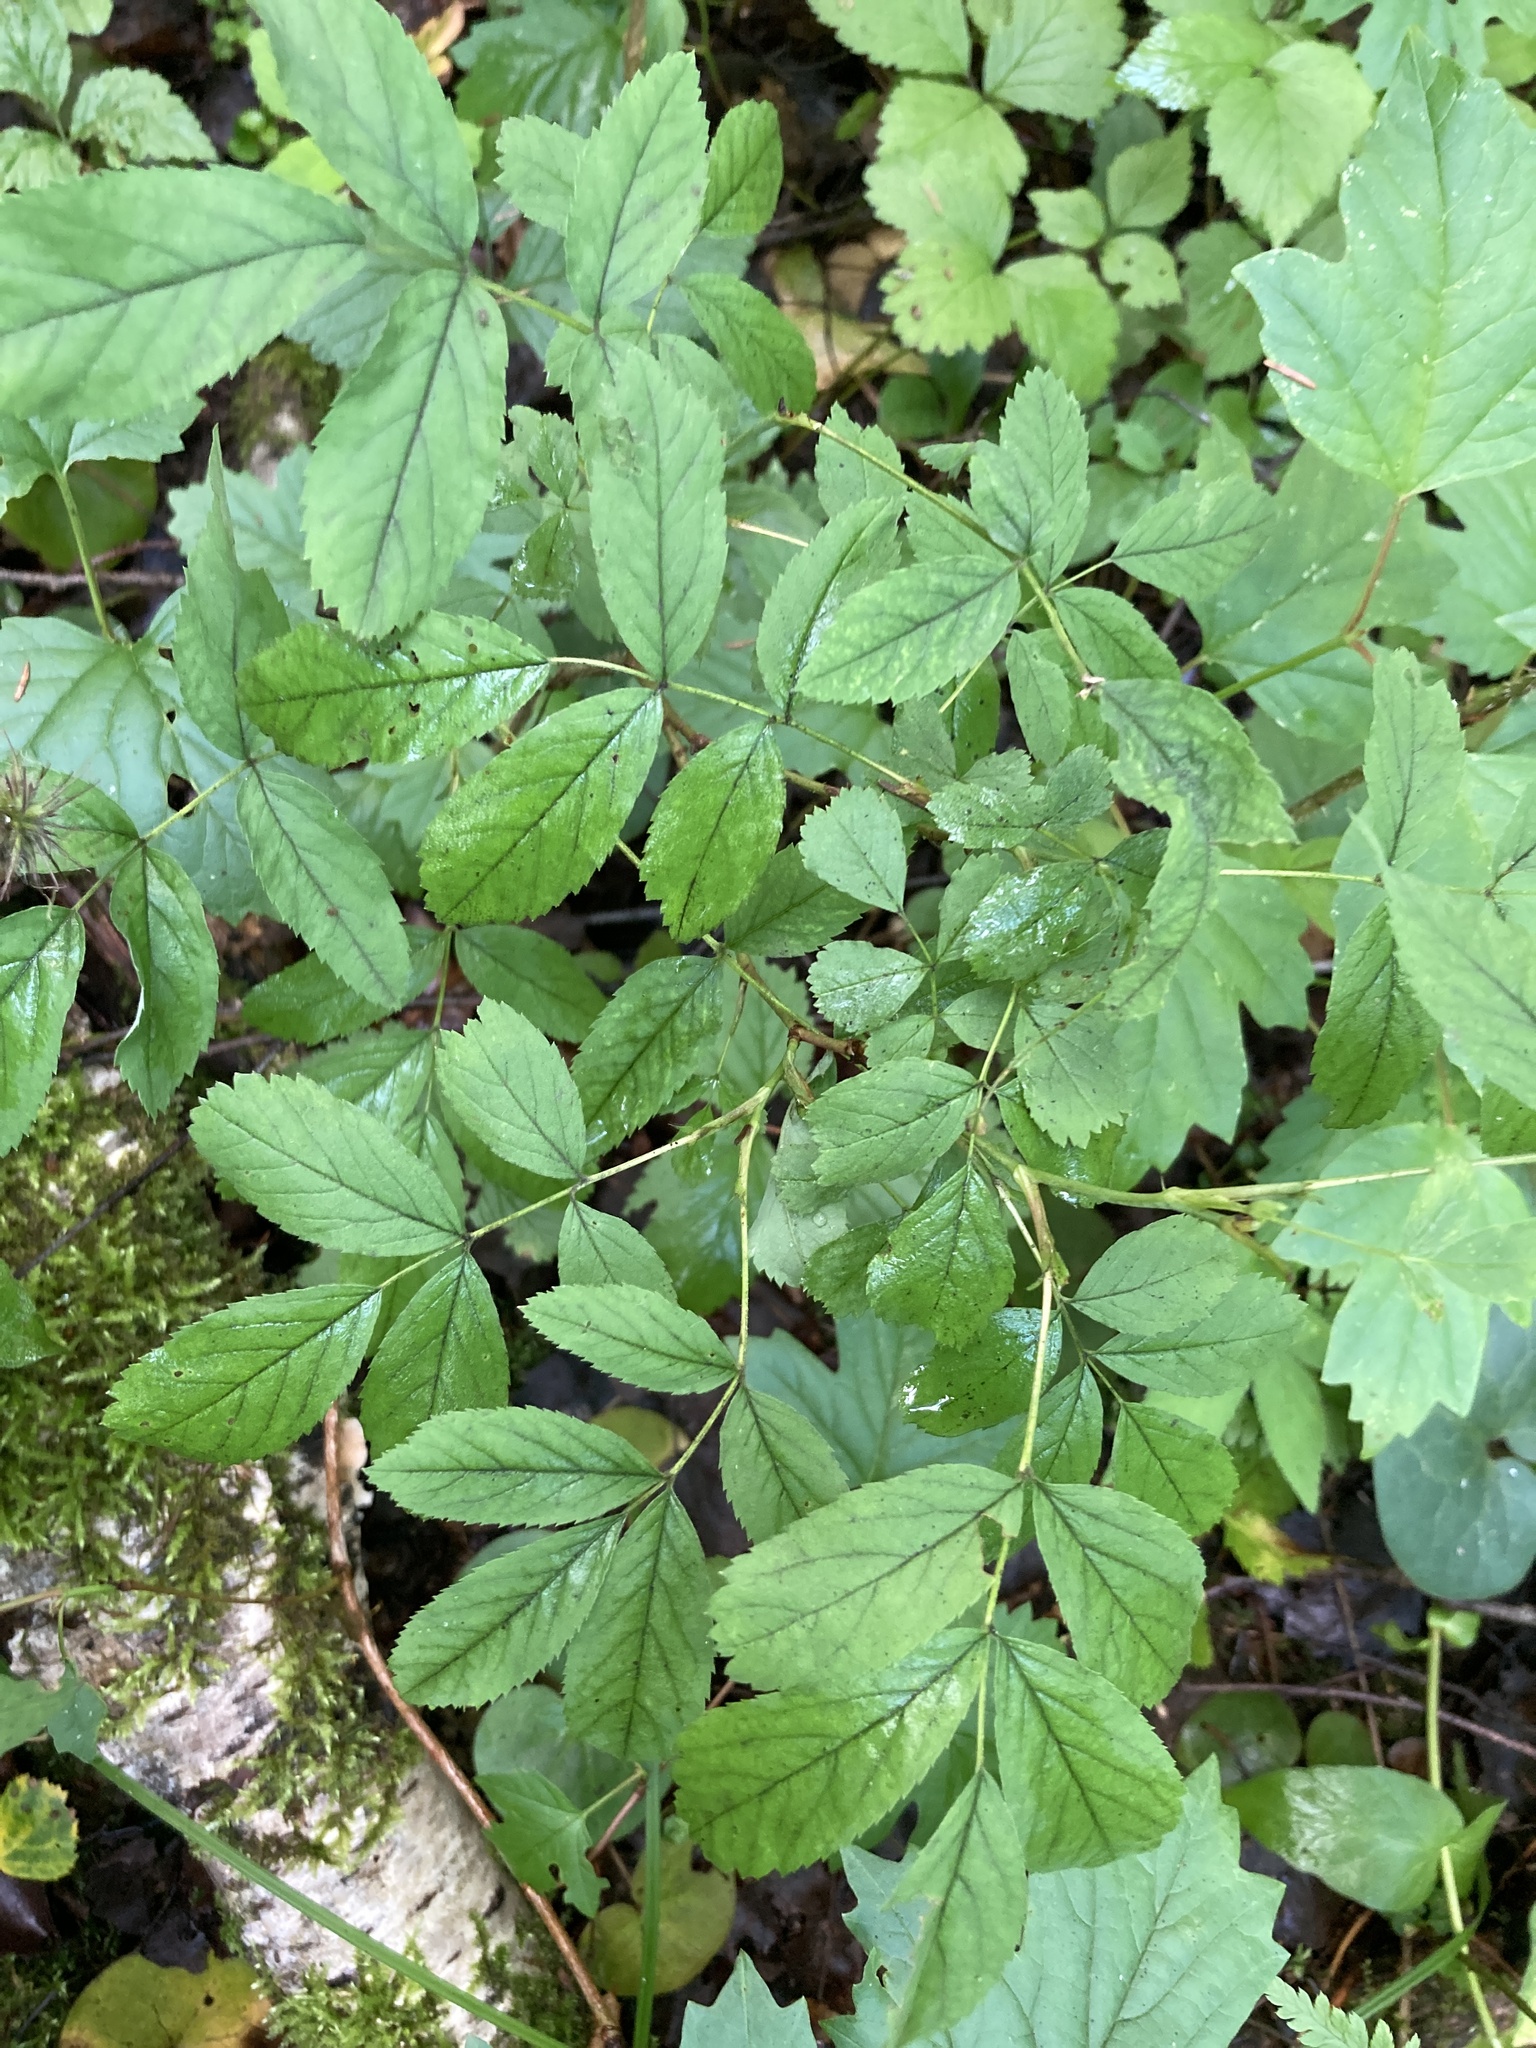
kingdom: Plantae
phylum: Tracheophyta
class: Magnoliopsida
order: Rosales
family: Rosaceae
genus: Rosa
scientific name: Rosa majalis
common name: Cinnamon rose
